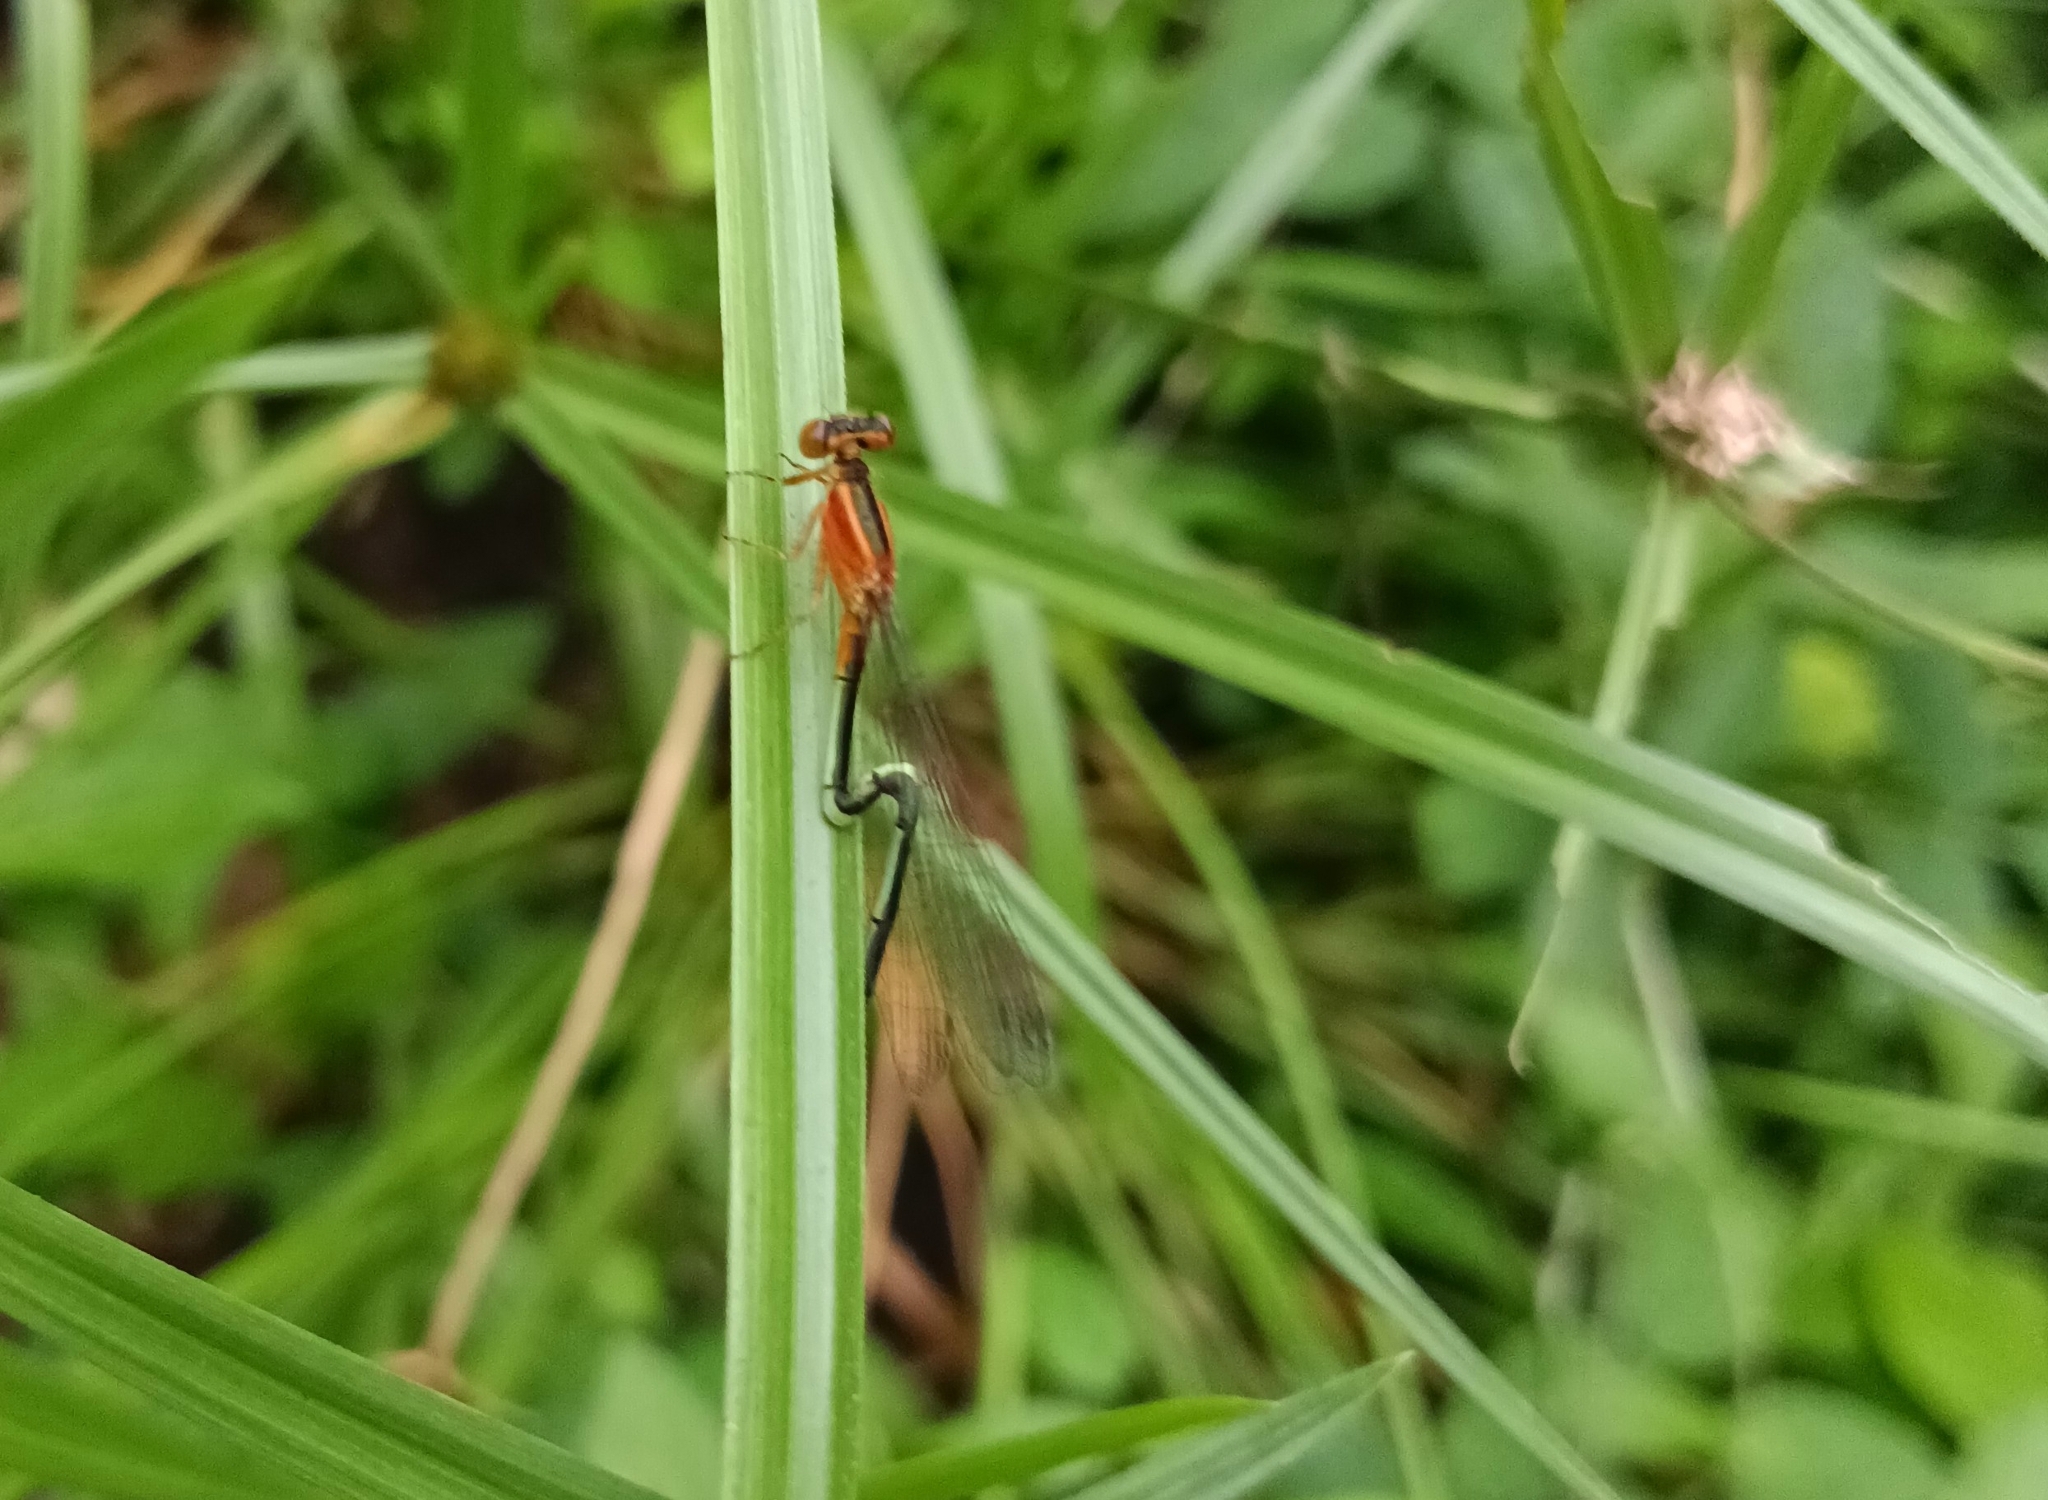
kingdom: Animalia
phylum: Arthropoda
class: Insecta
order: Odonata
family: Coenagrionidae
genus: Ischnura
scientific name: Ischnura senegalensis
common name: Tropical bluetail
